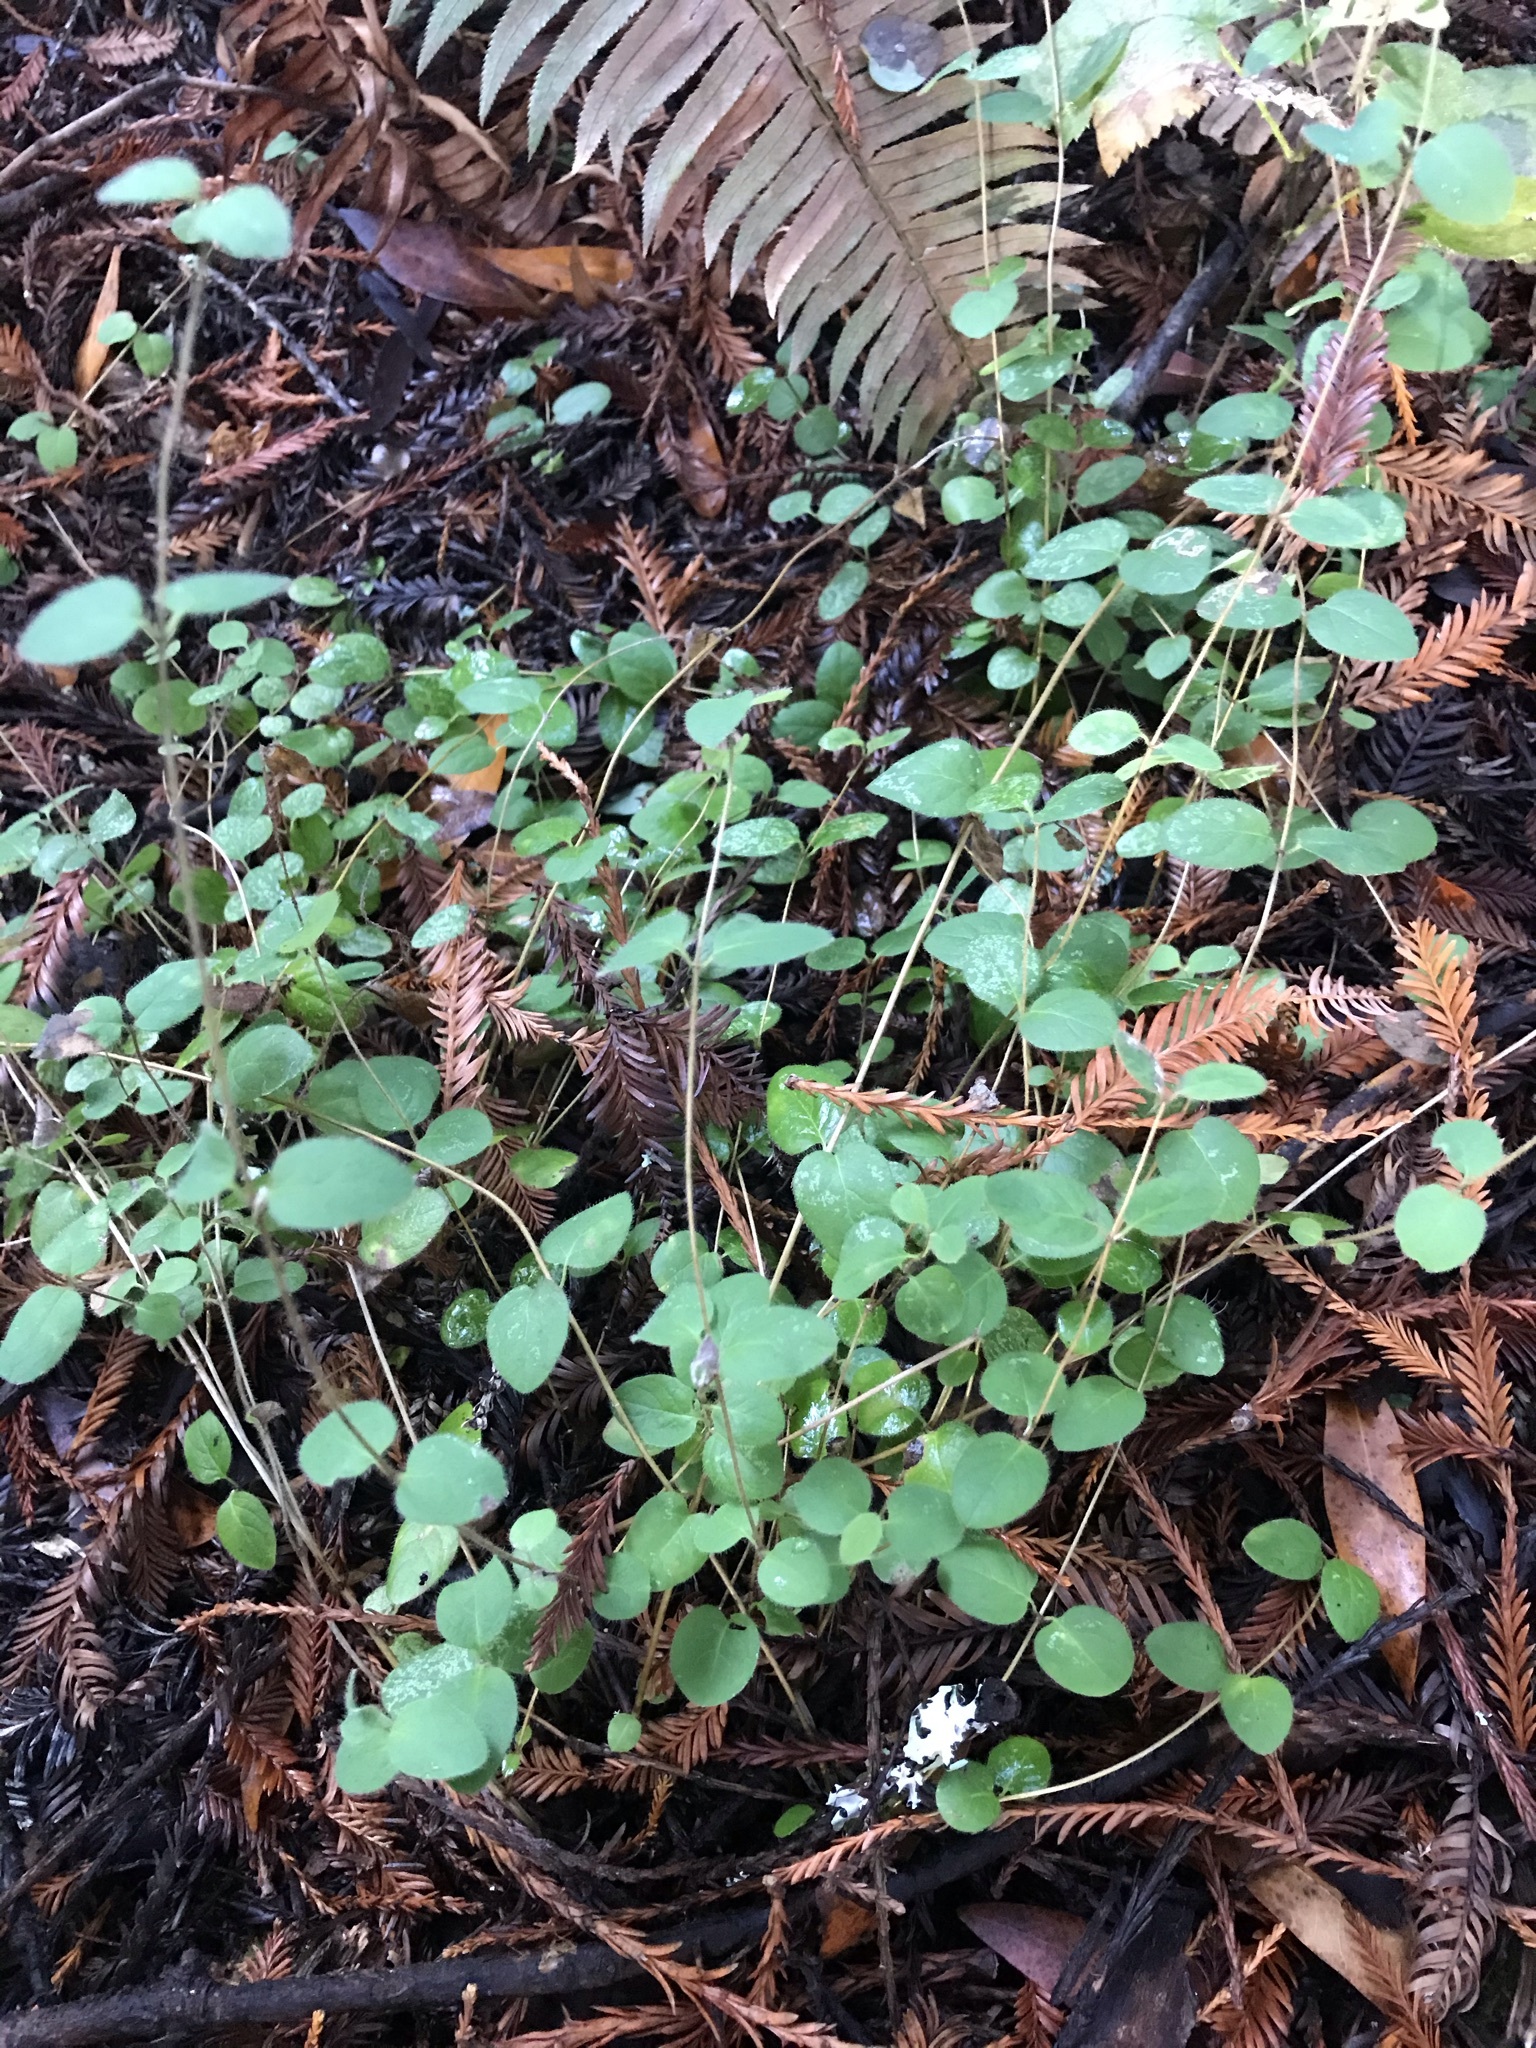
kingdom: Plantae
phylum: Tracheophyta
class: Magnoliopsida
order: Dipsacales
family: Caprifoliaceae
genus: Lonicera
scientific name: Lonicera hispidula
